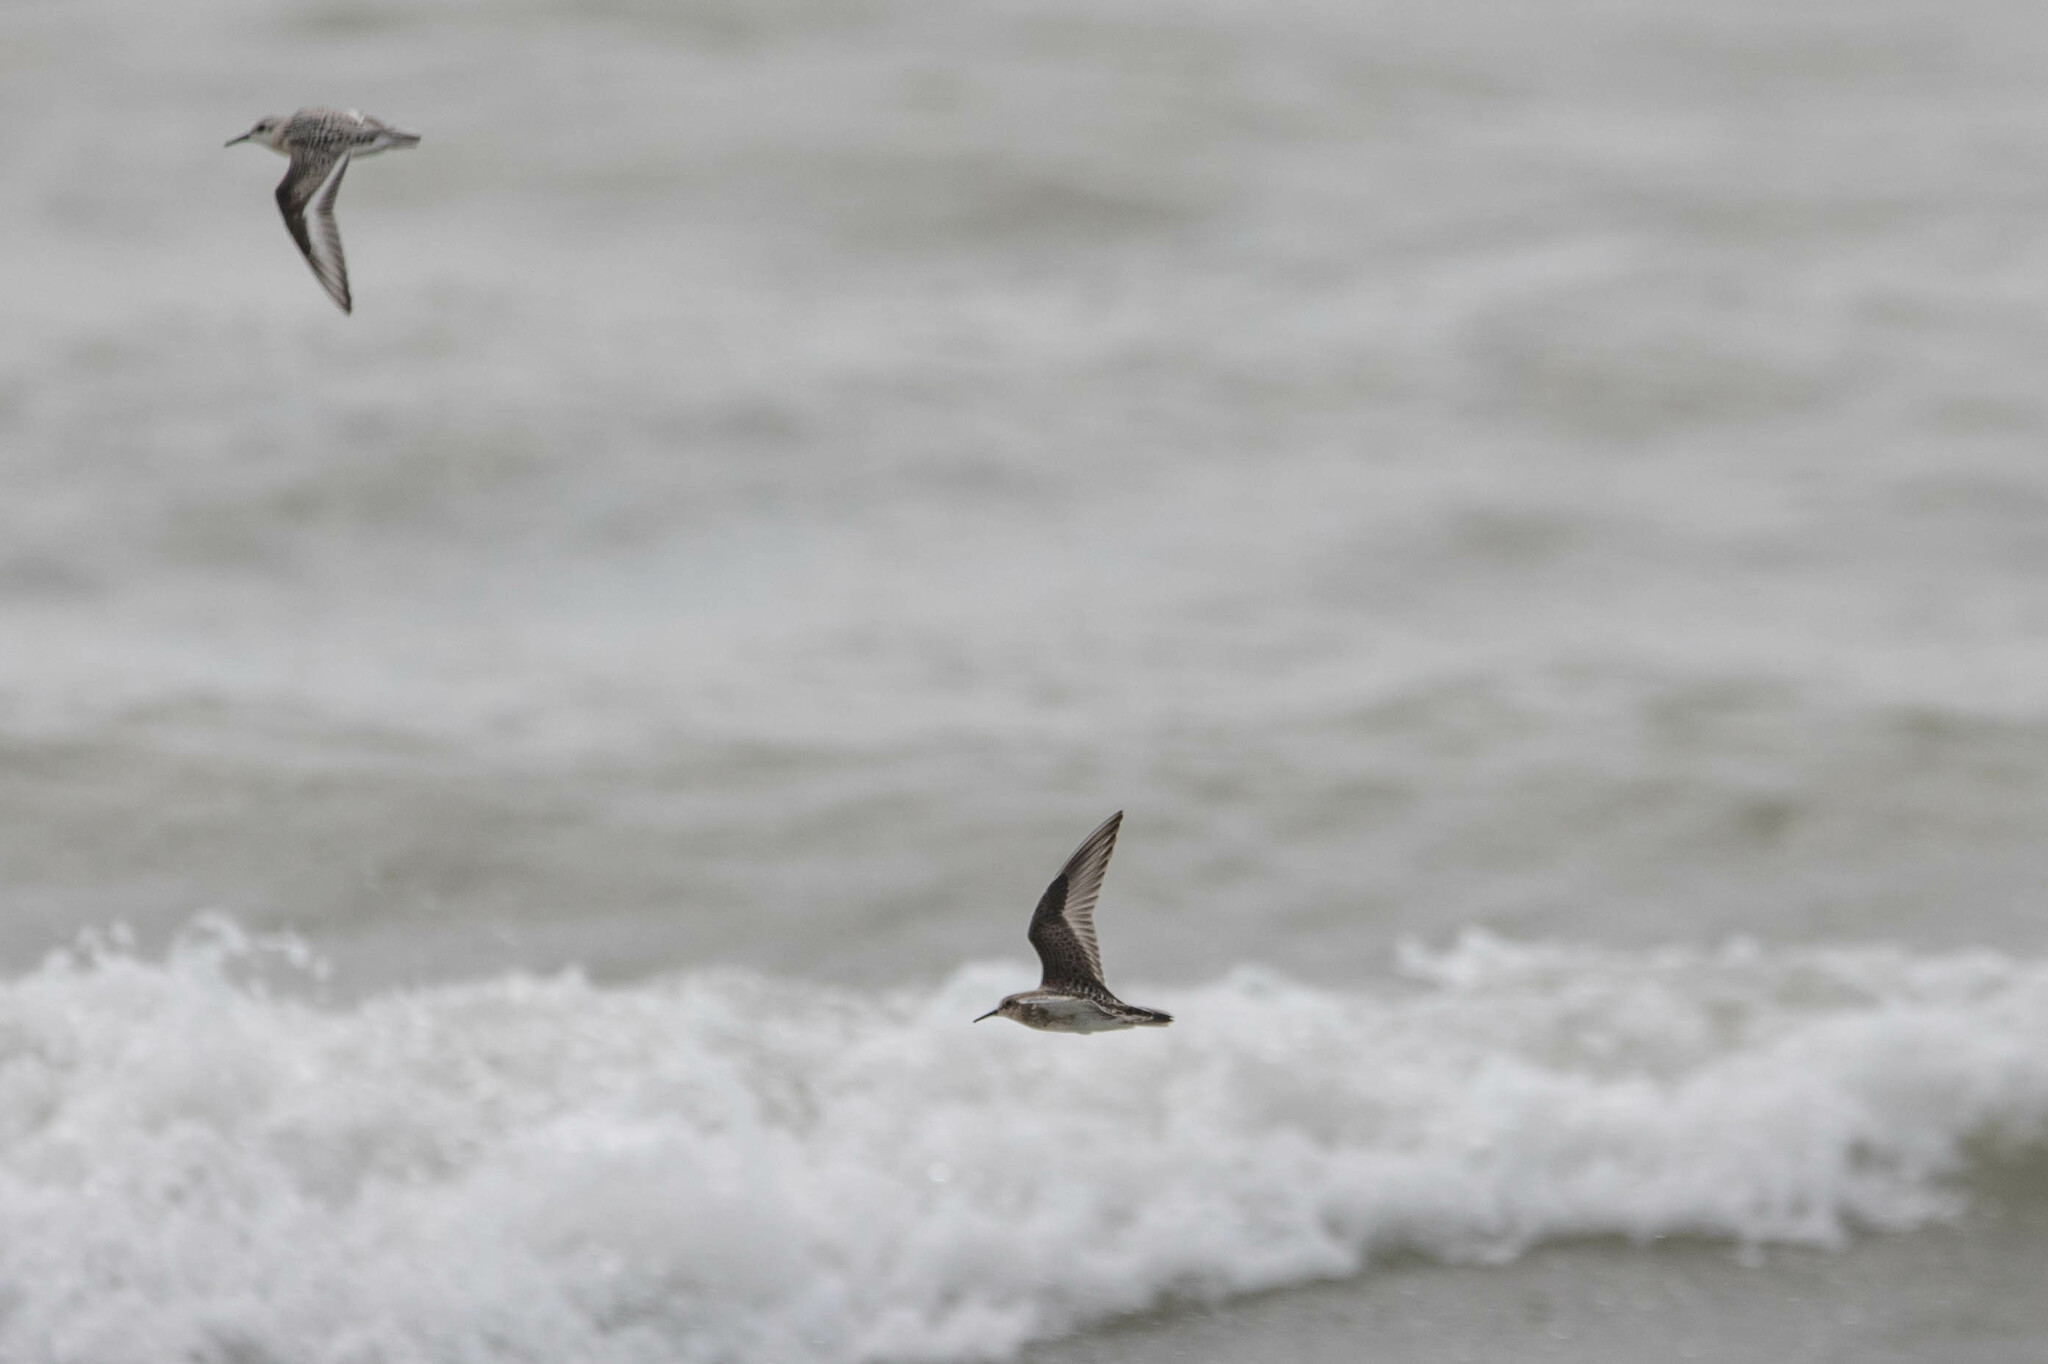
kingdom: Animalia
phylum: Chordata
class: Aves
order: Charadriiformes
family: Scolopacidae
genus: Calidris
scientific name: Calidris bairdii
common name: Baird's sandpiper
